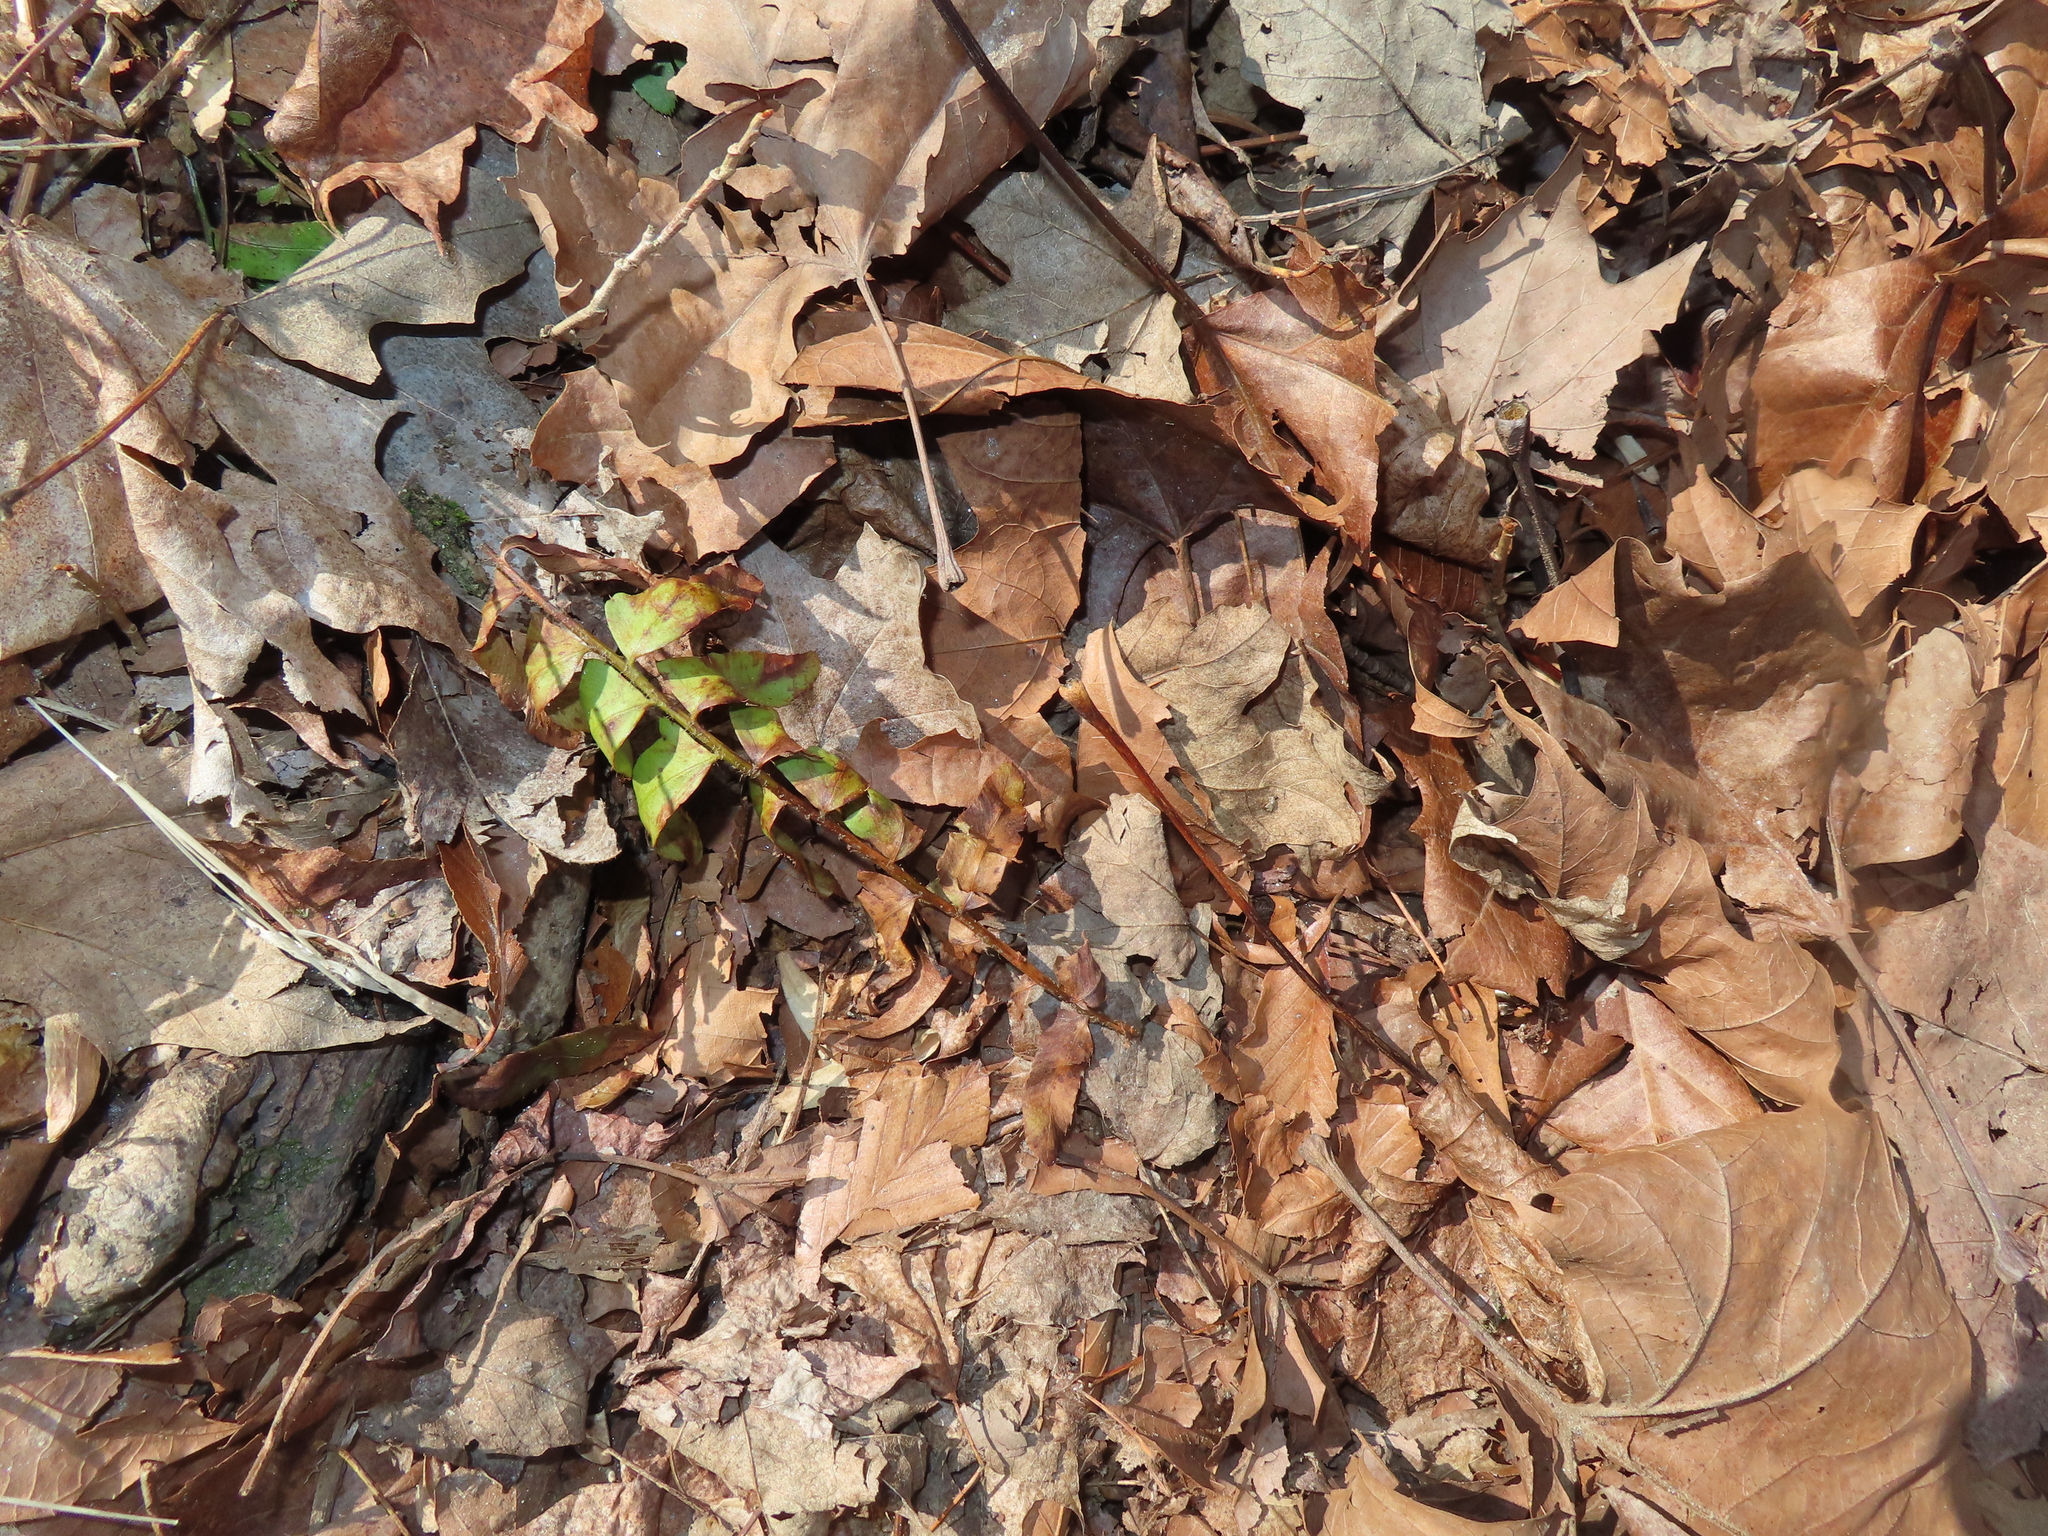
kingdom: Plantae
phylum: Tracheophyta
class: Polypodiopsida
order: Polypodiales
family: Dryopteridaceae
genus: Polystichum
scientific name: Polystichum acrostichoides
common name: Christmas fern
